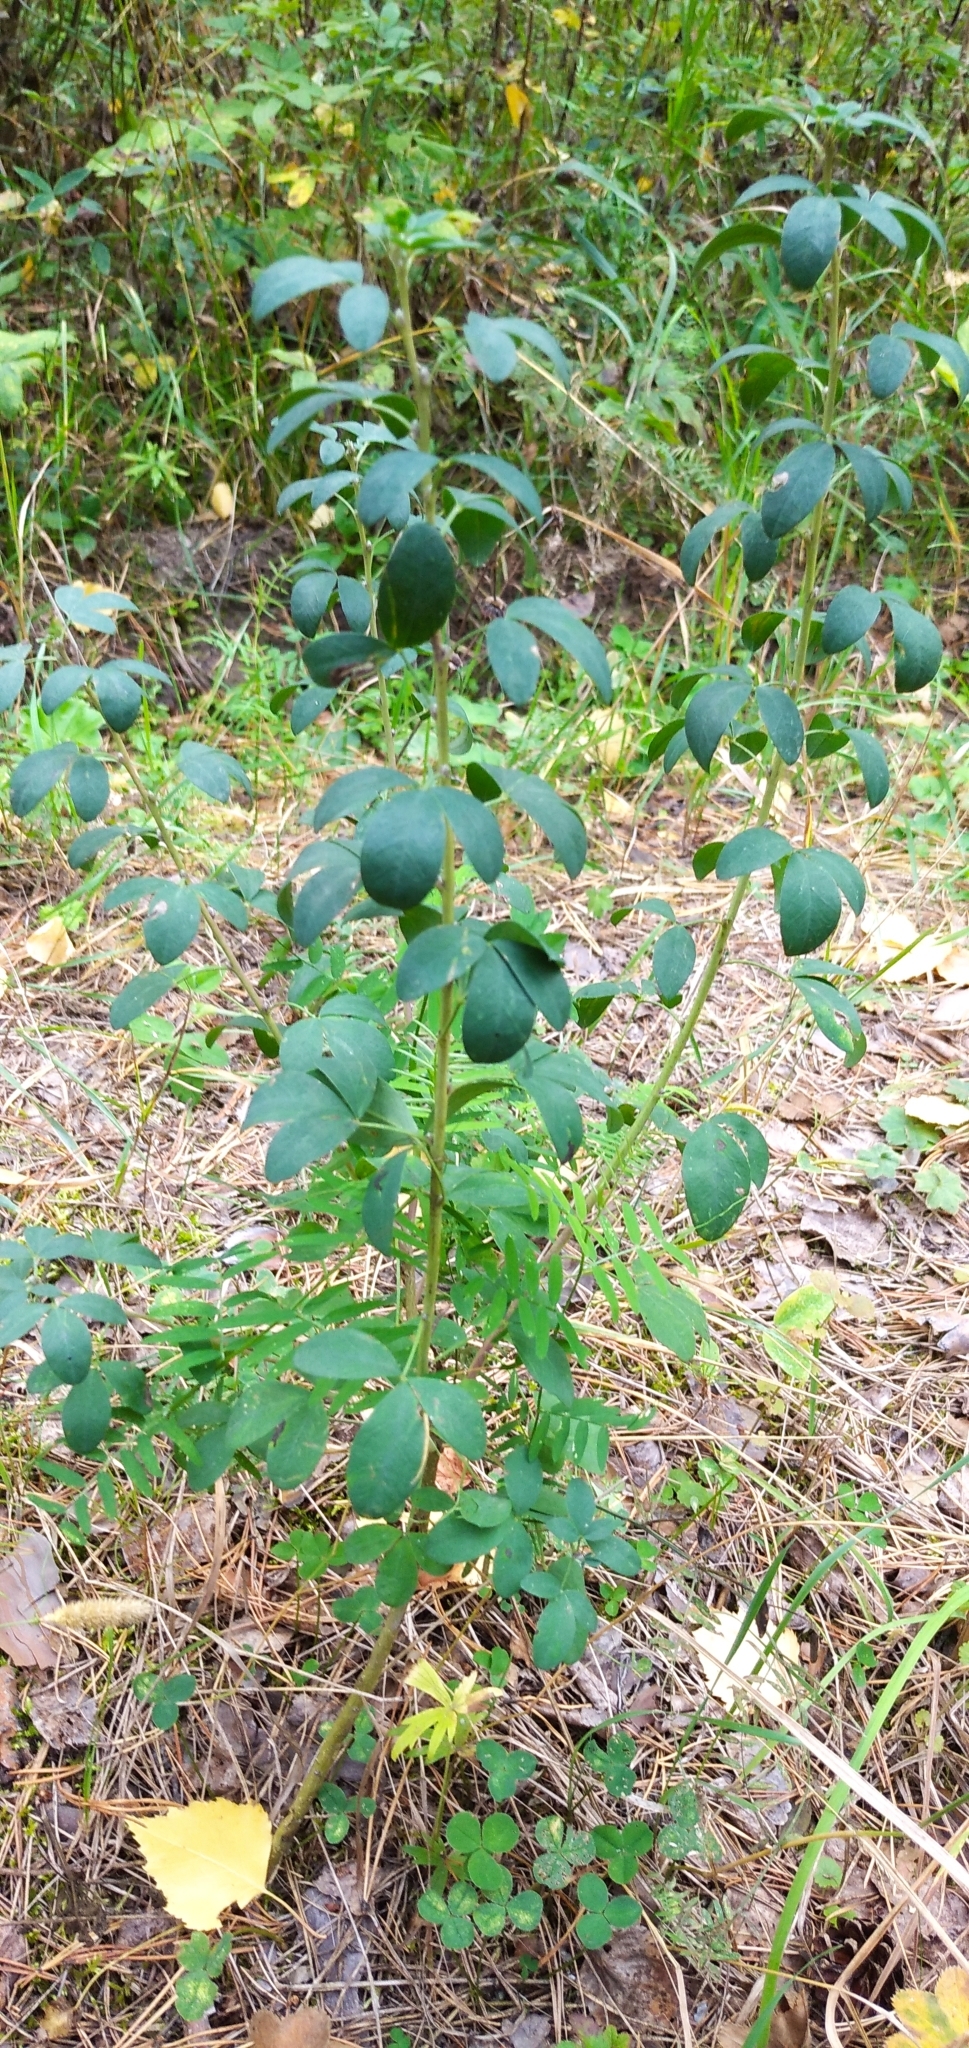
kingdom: Plantae
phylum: Tracheophyta
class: Magnoliopsida
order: Fabales
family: Fabaceae
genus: Chamaecytisus
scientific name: Chamaecytisus ruthenicus
